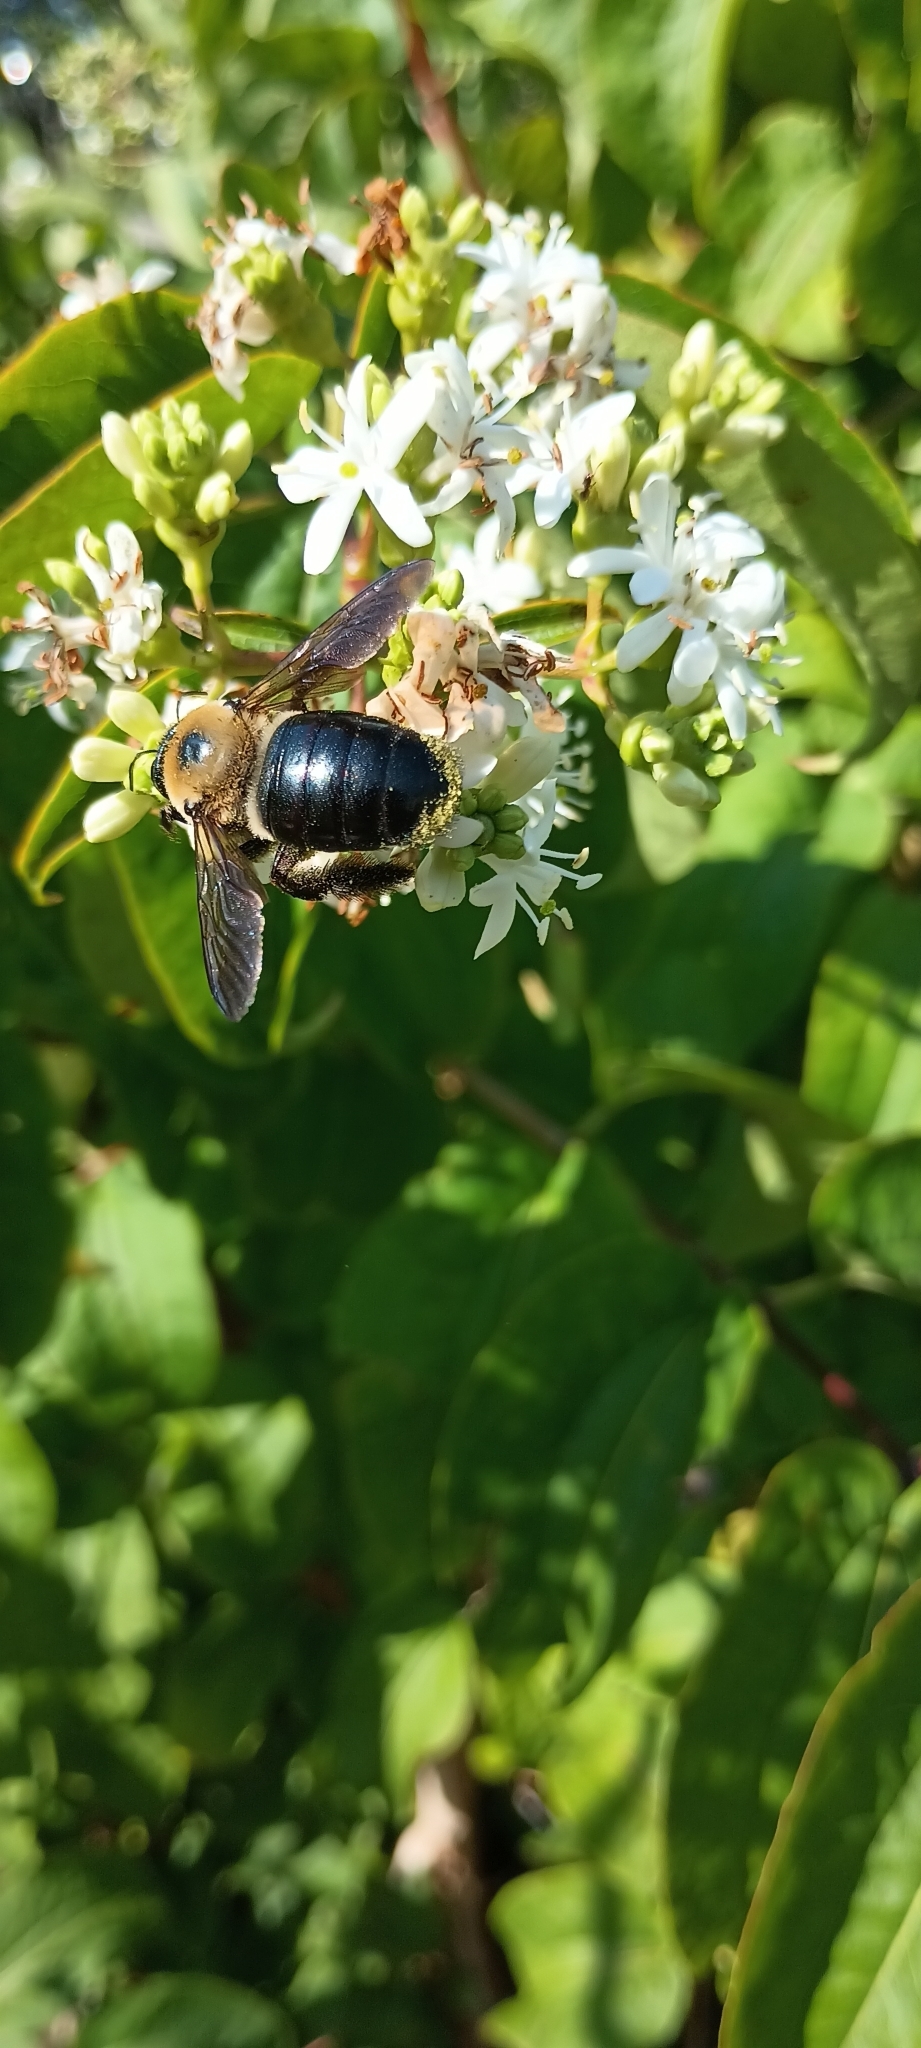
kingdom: Animalia
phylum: Arthropoda
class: Insecta
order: Hymenoptera
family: Apidae
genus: Xylocopa
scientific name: Xylocopa virginica
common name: Carpenter bee
